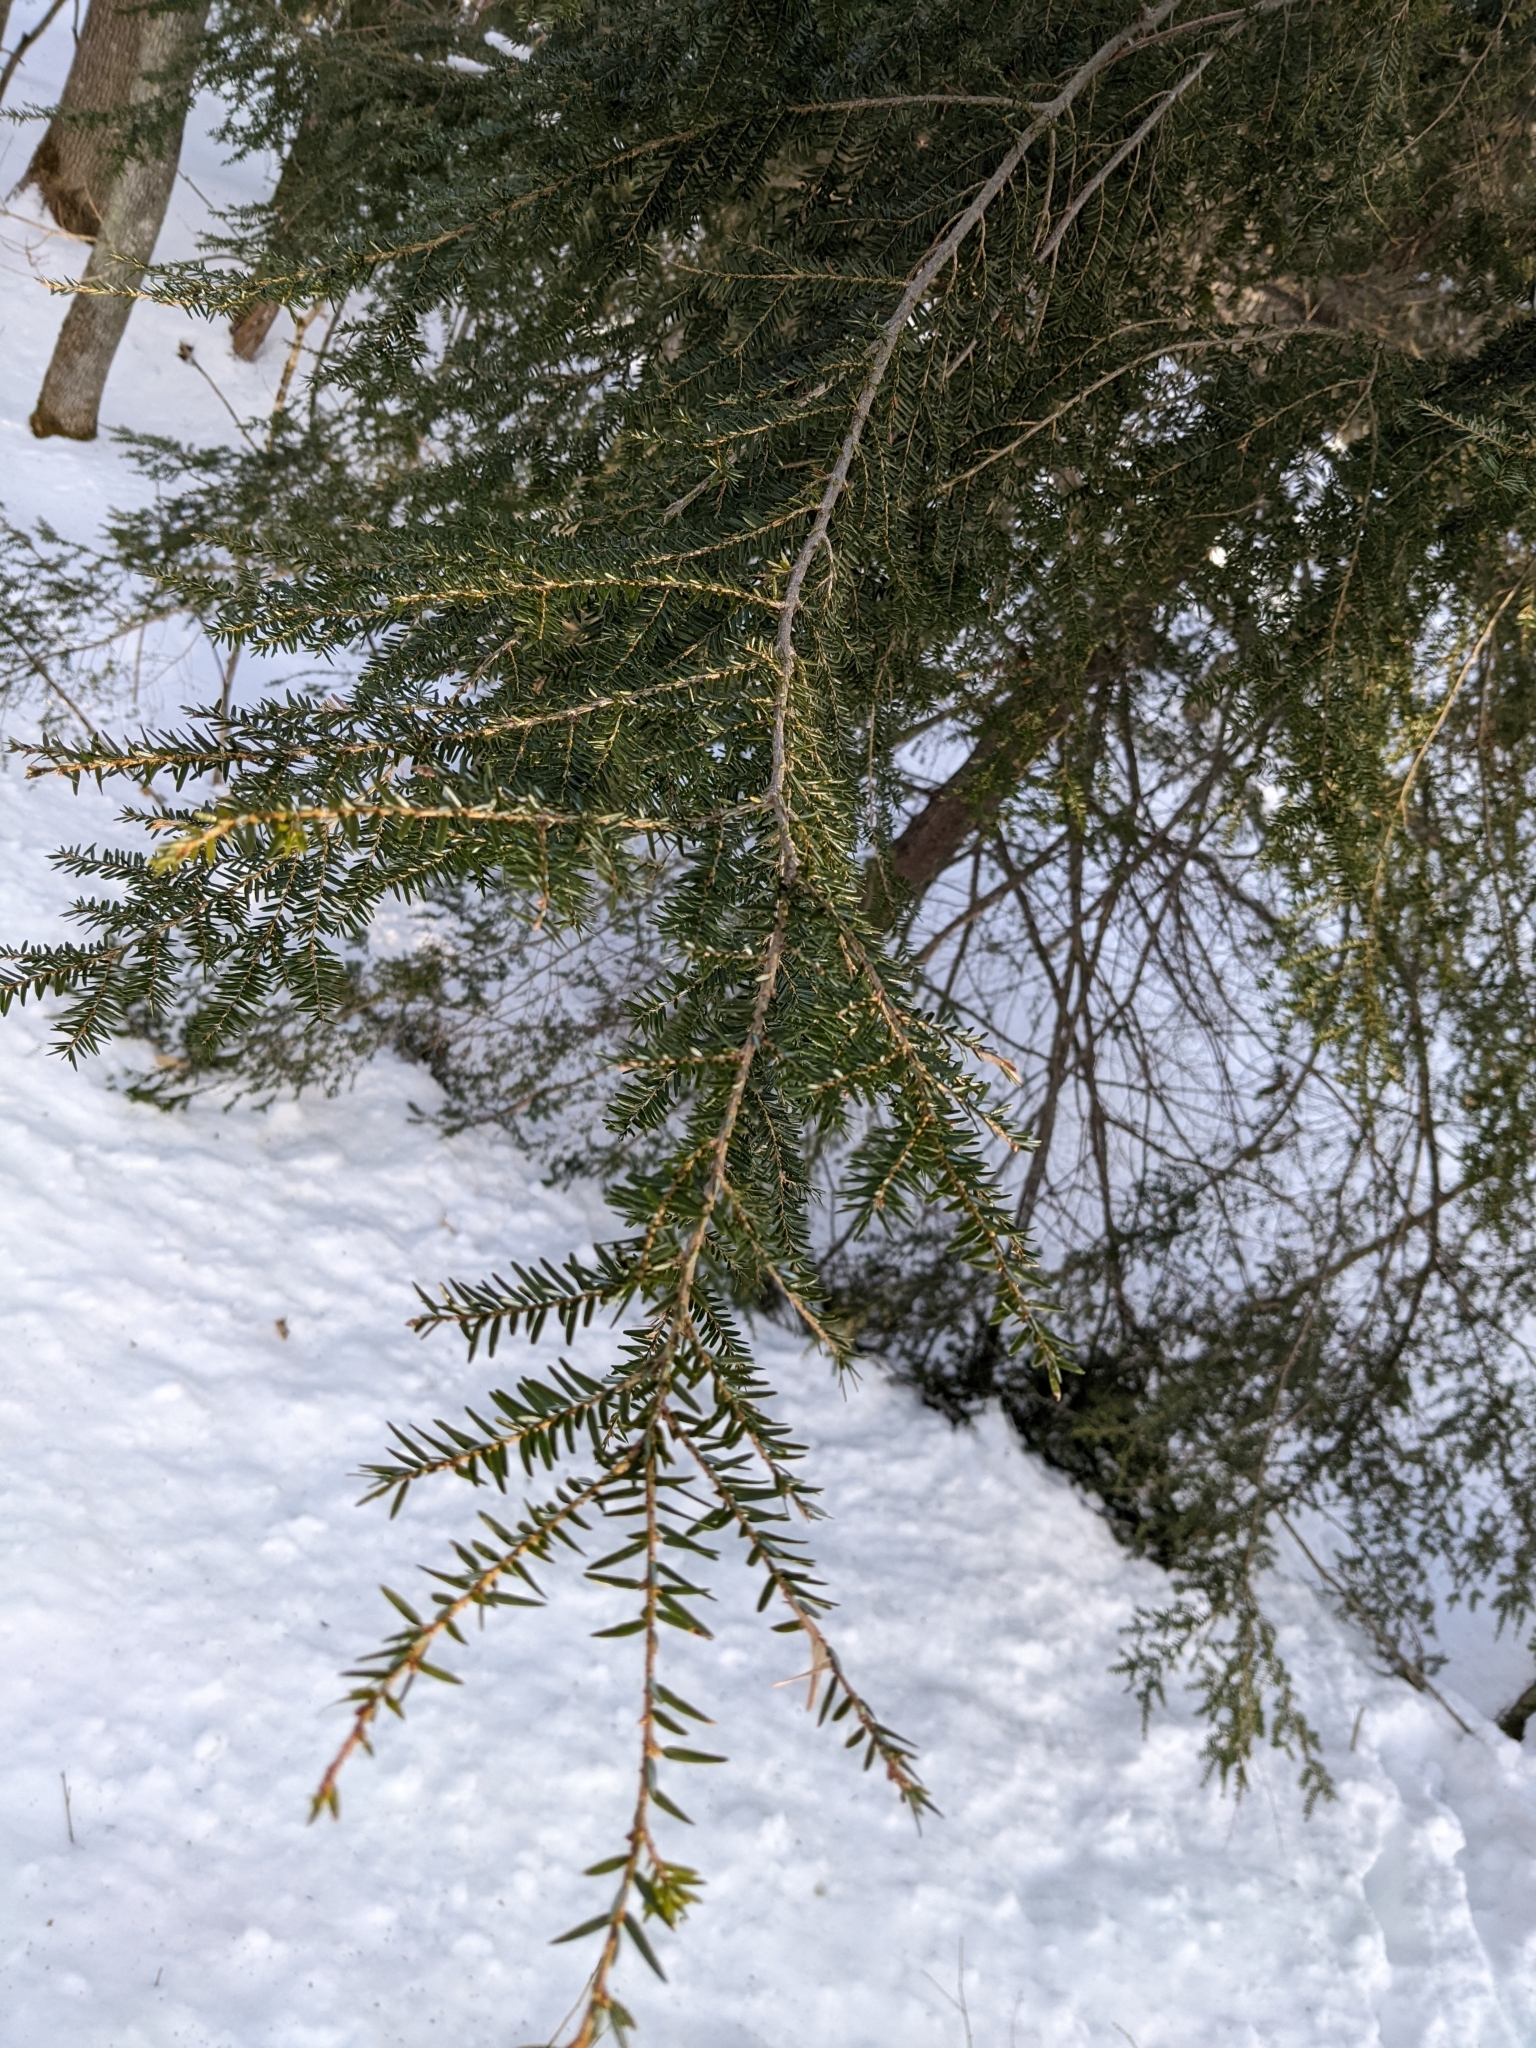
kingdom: Plantae
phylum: Tracheophyta
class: Pinopsida
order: Pinales
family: Pinaceae
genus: Tsuga
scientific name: Tsuga canadensis
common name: Eastern hemlock
